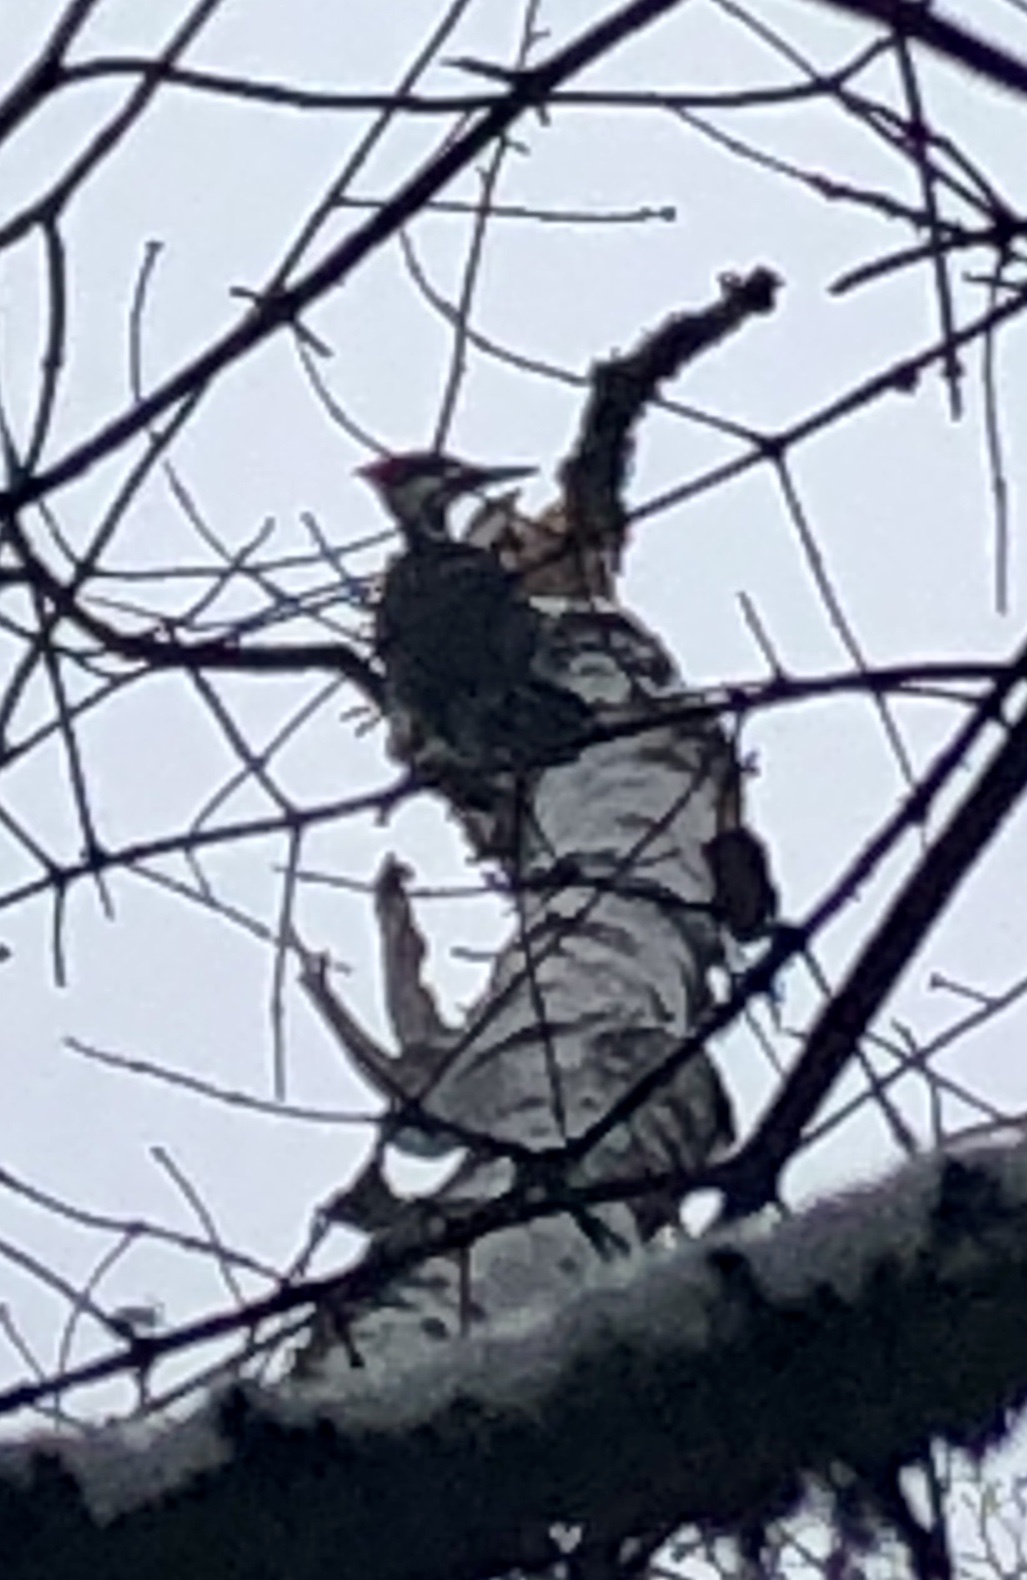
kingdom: Animalia
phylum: Chordata
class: Aves
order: Piciformes
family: Picidae
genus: Dryocopus
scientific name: Dryocopus pileatus
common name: Pileated woodpecker
